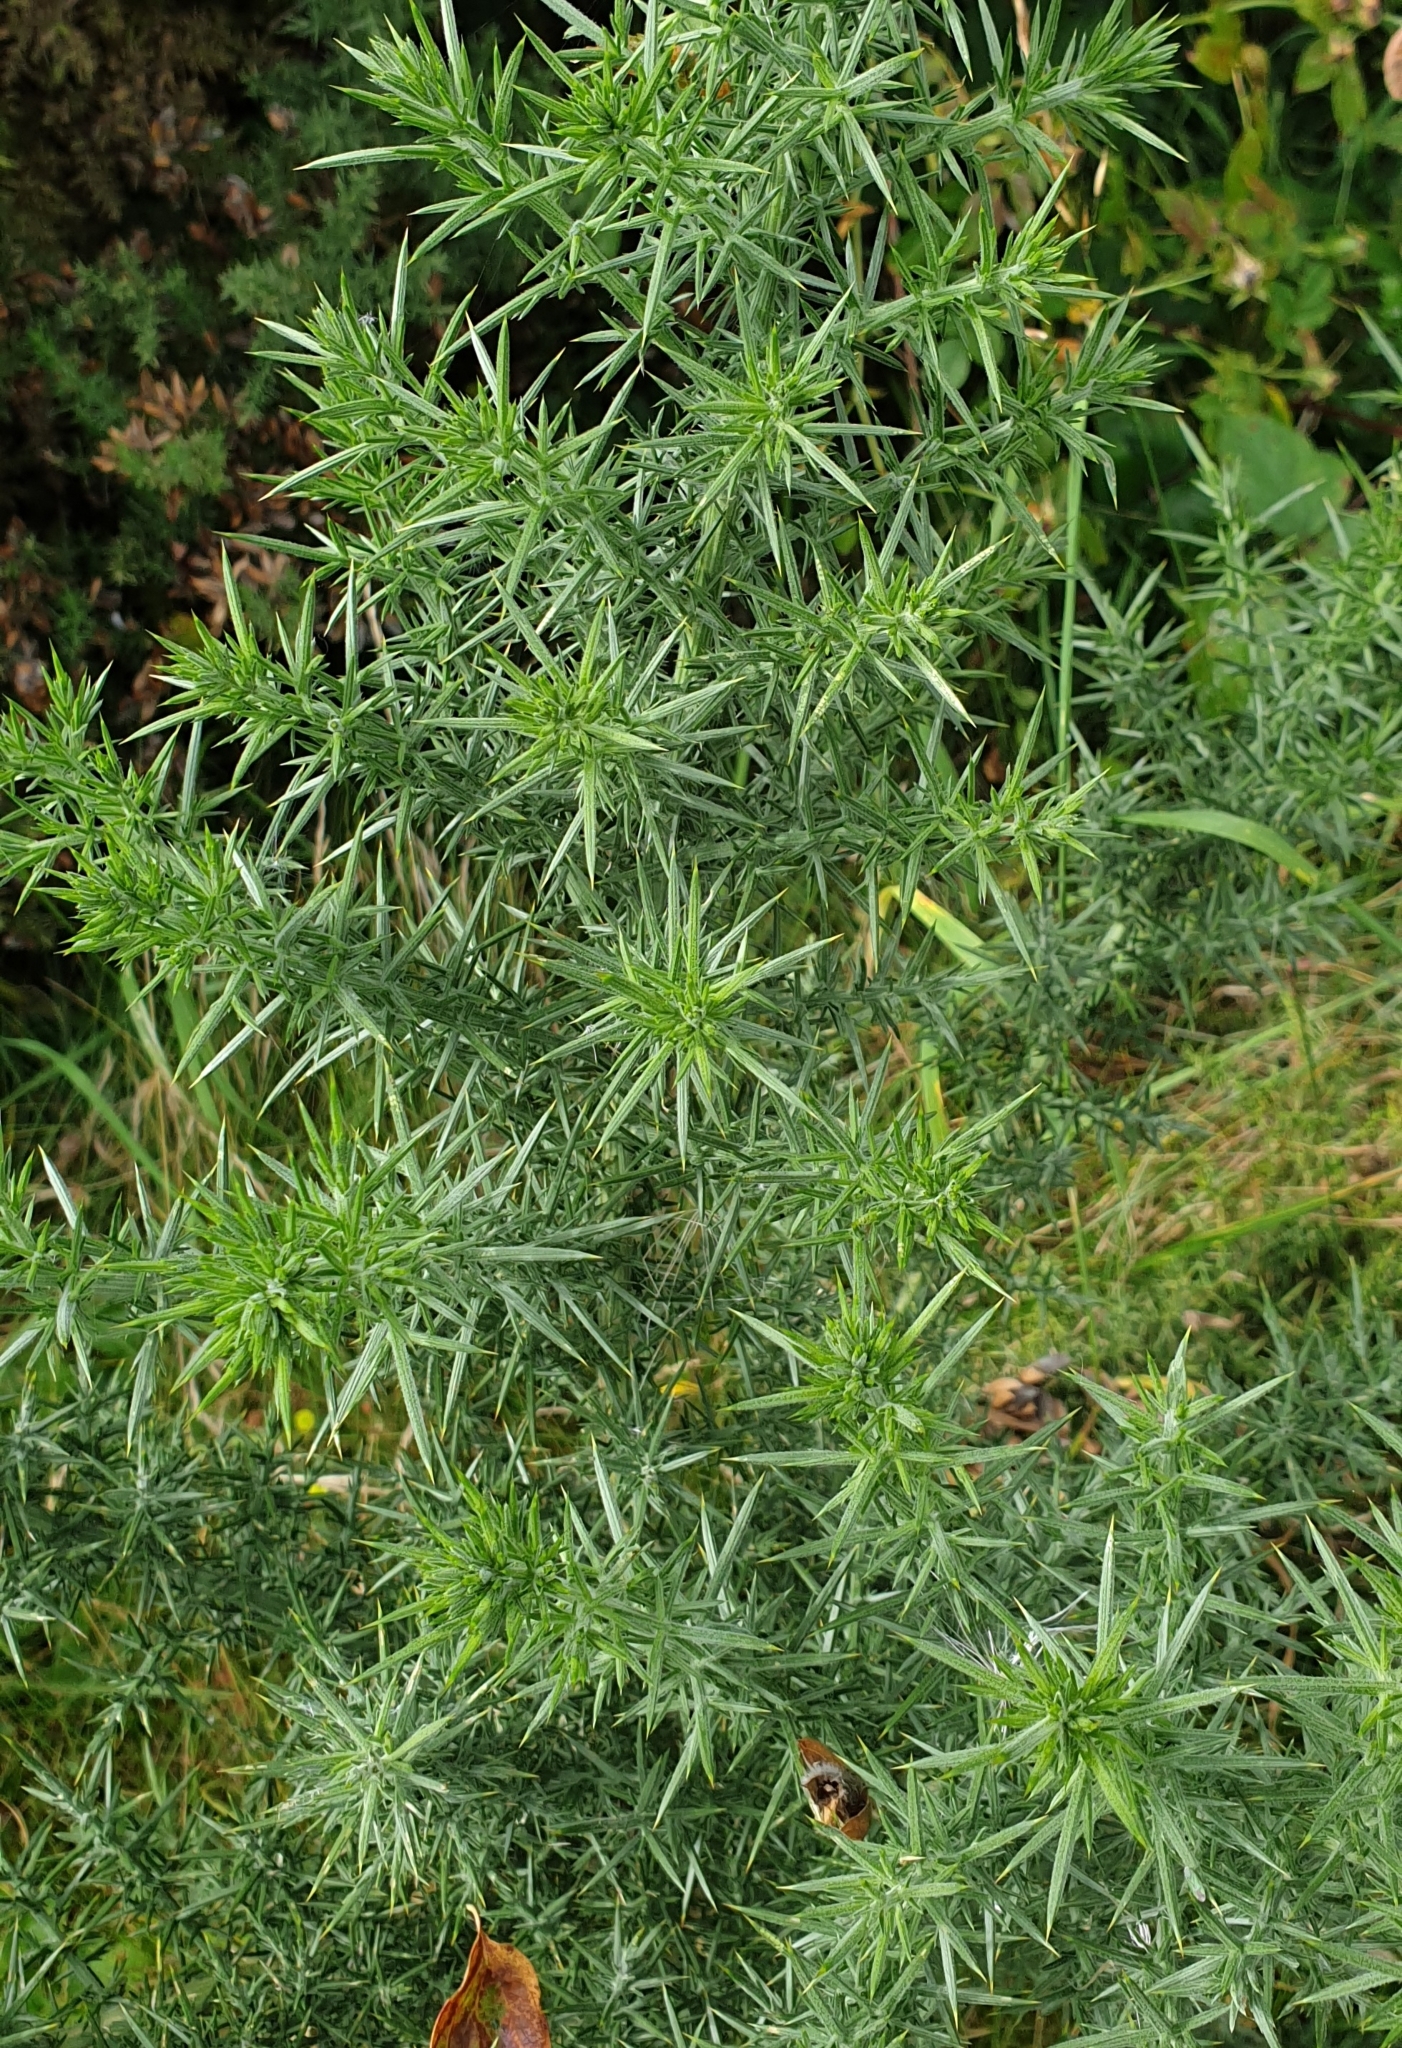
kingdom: Plantae
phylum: Tracheophyta
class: Magnoliopsida
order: Fabales
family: Fabaceae
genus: Ulex
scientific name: Ulex europaeus
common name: Common gorse
